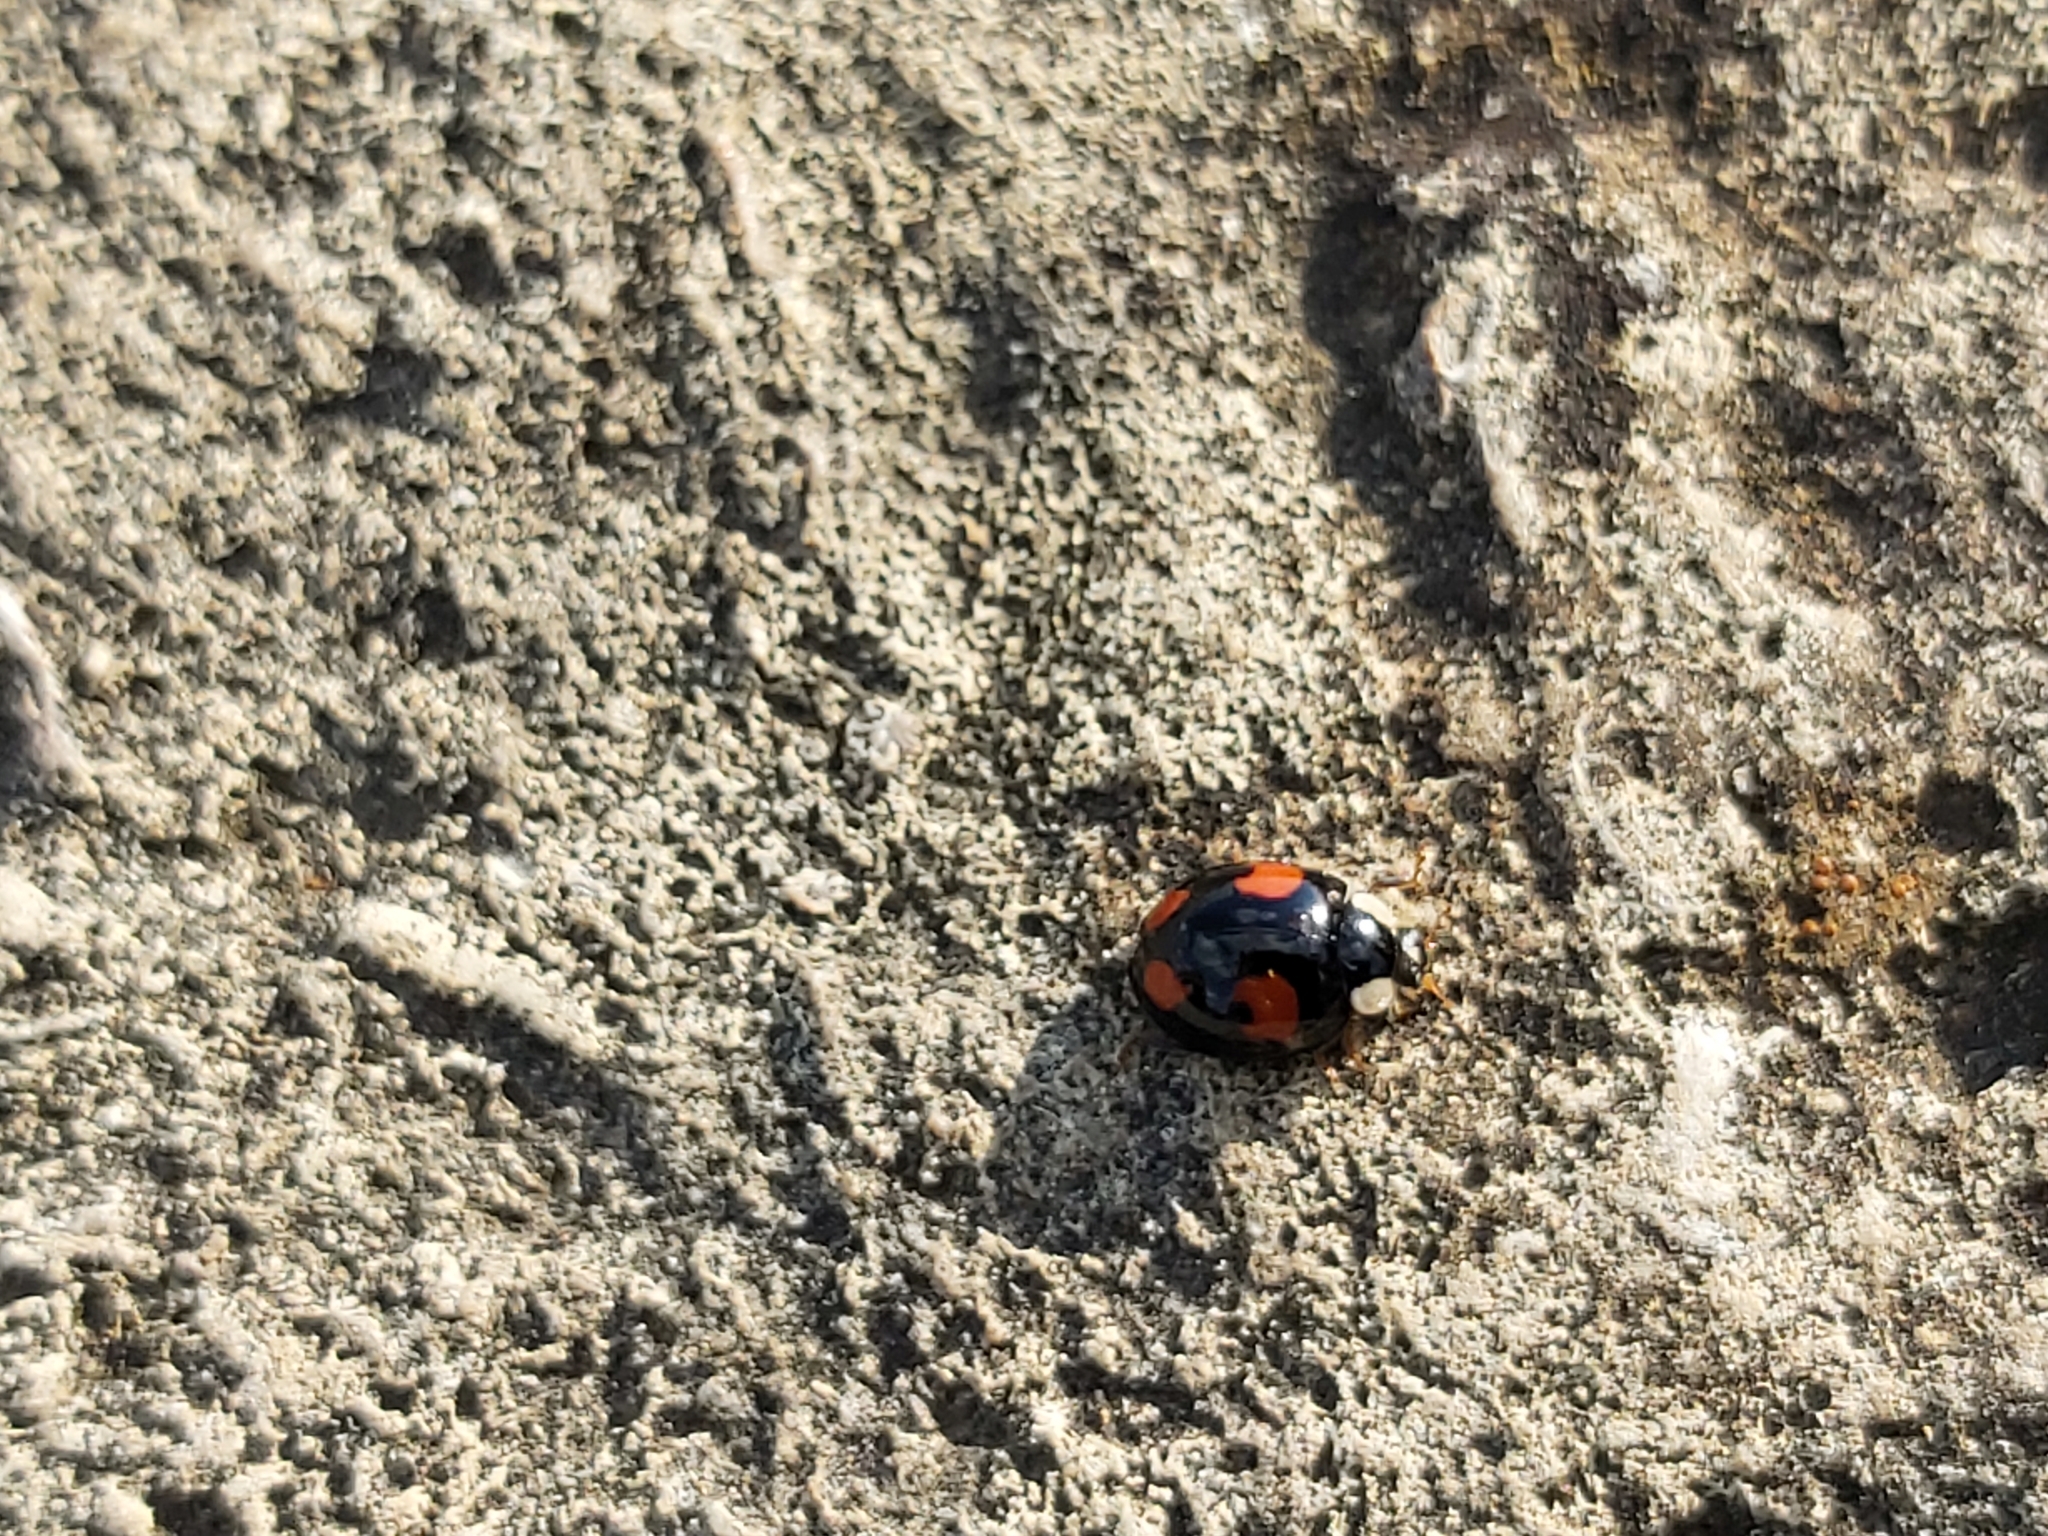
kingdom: Animalia
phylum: Arthropoda
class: Insecta
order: Coleoptera
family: Coccinellidae
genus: Harmonia
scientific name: Harmonia axyridis
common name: Harlequin ladybird
